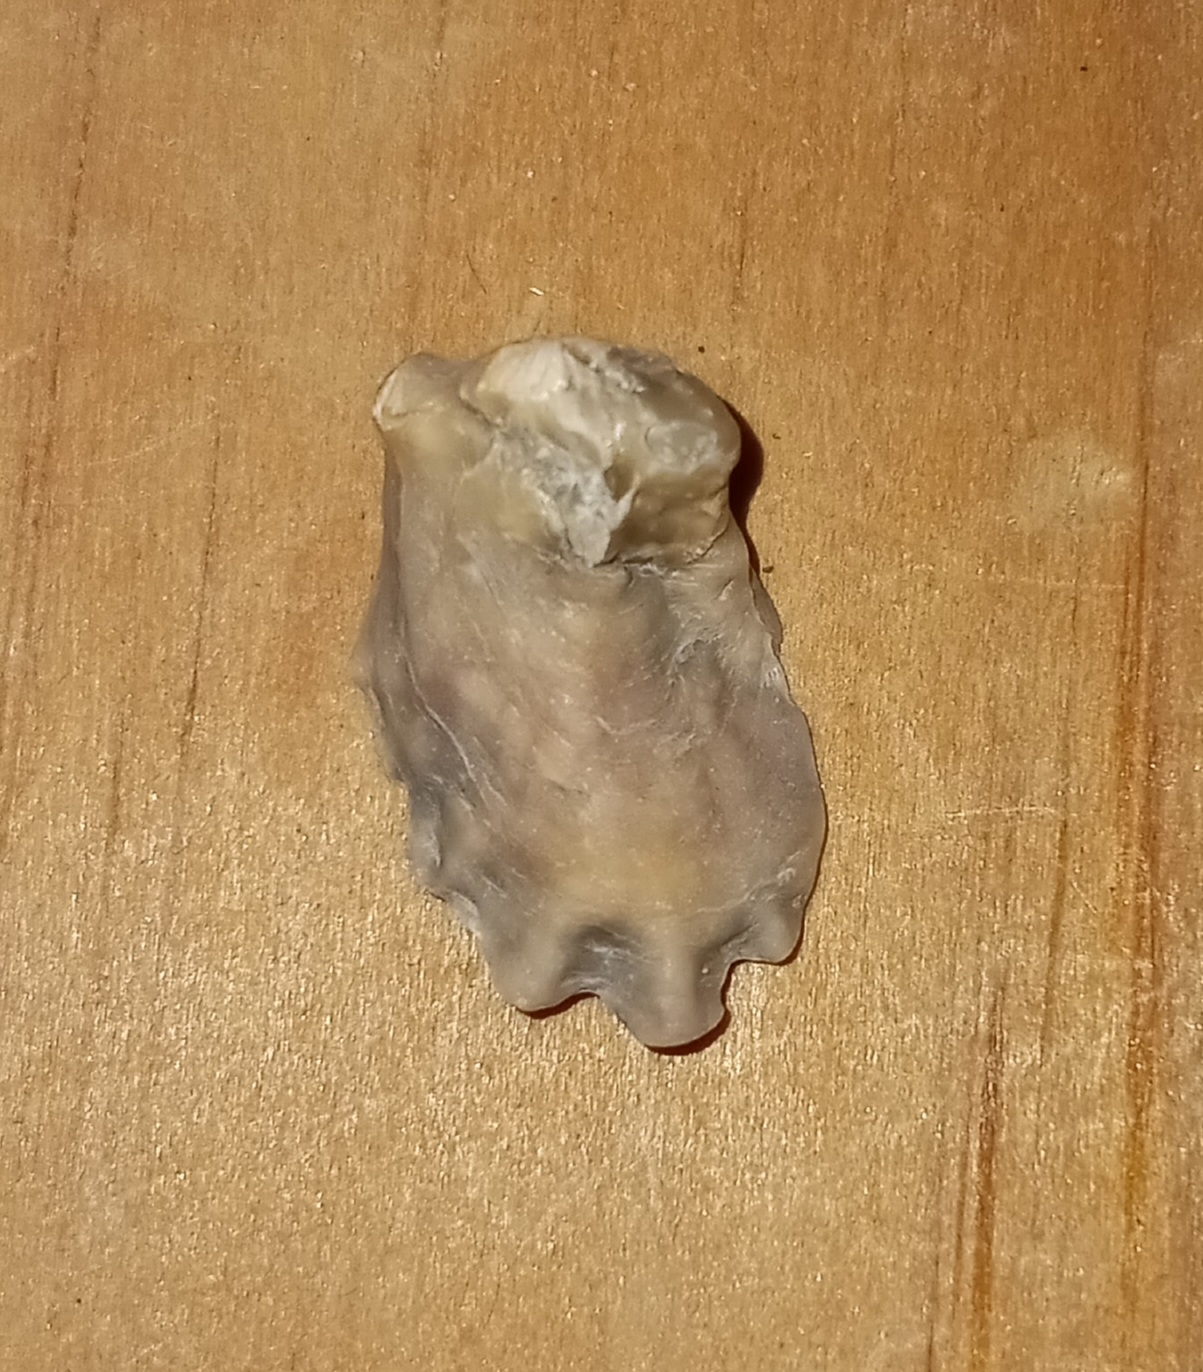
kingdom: Animalia
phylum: Mollusca
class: Bivalvia
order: Ostreida
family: Ostreidae
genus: Crassostrea
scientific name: Crassostrea virginica
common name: American oyster
